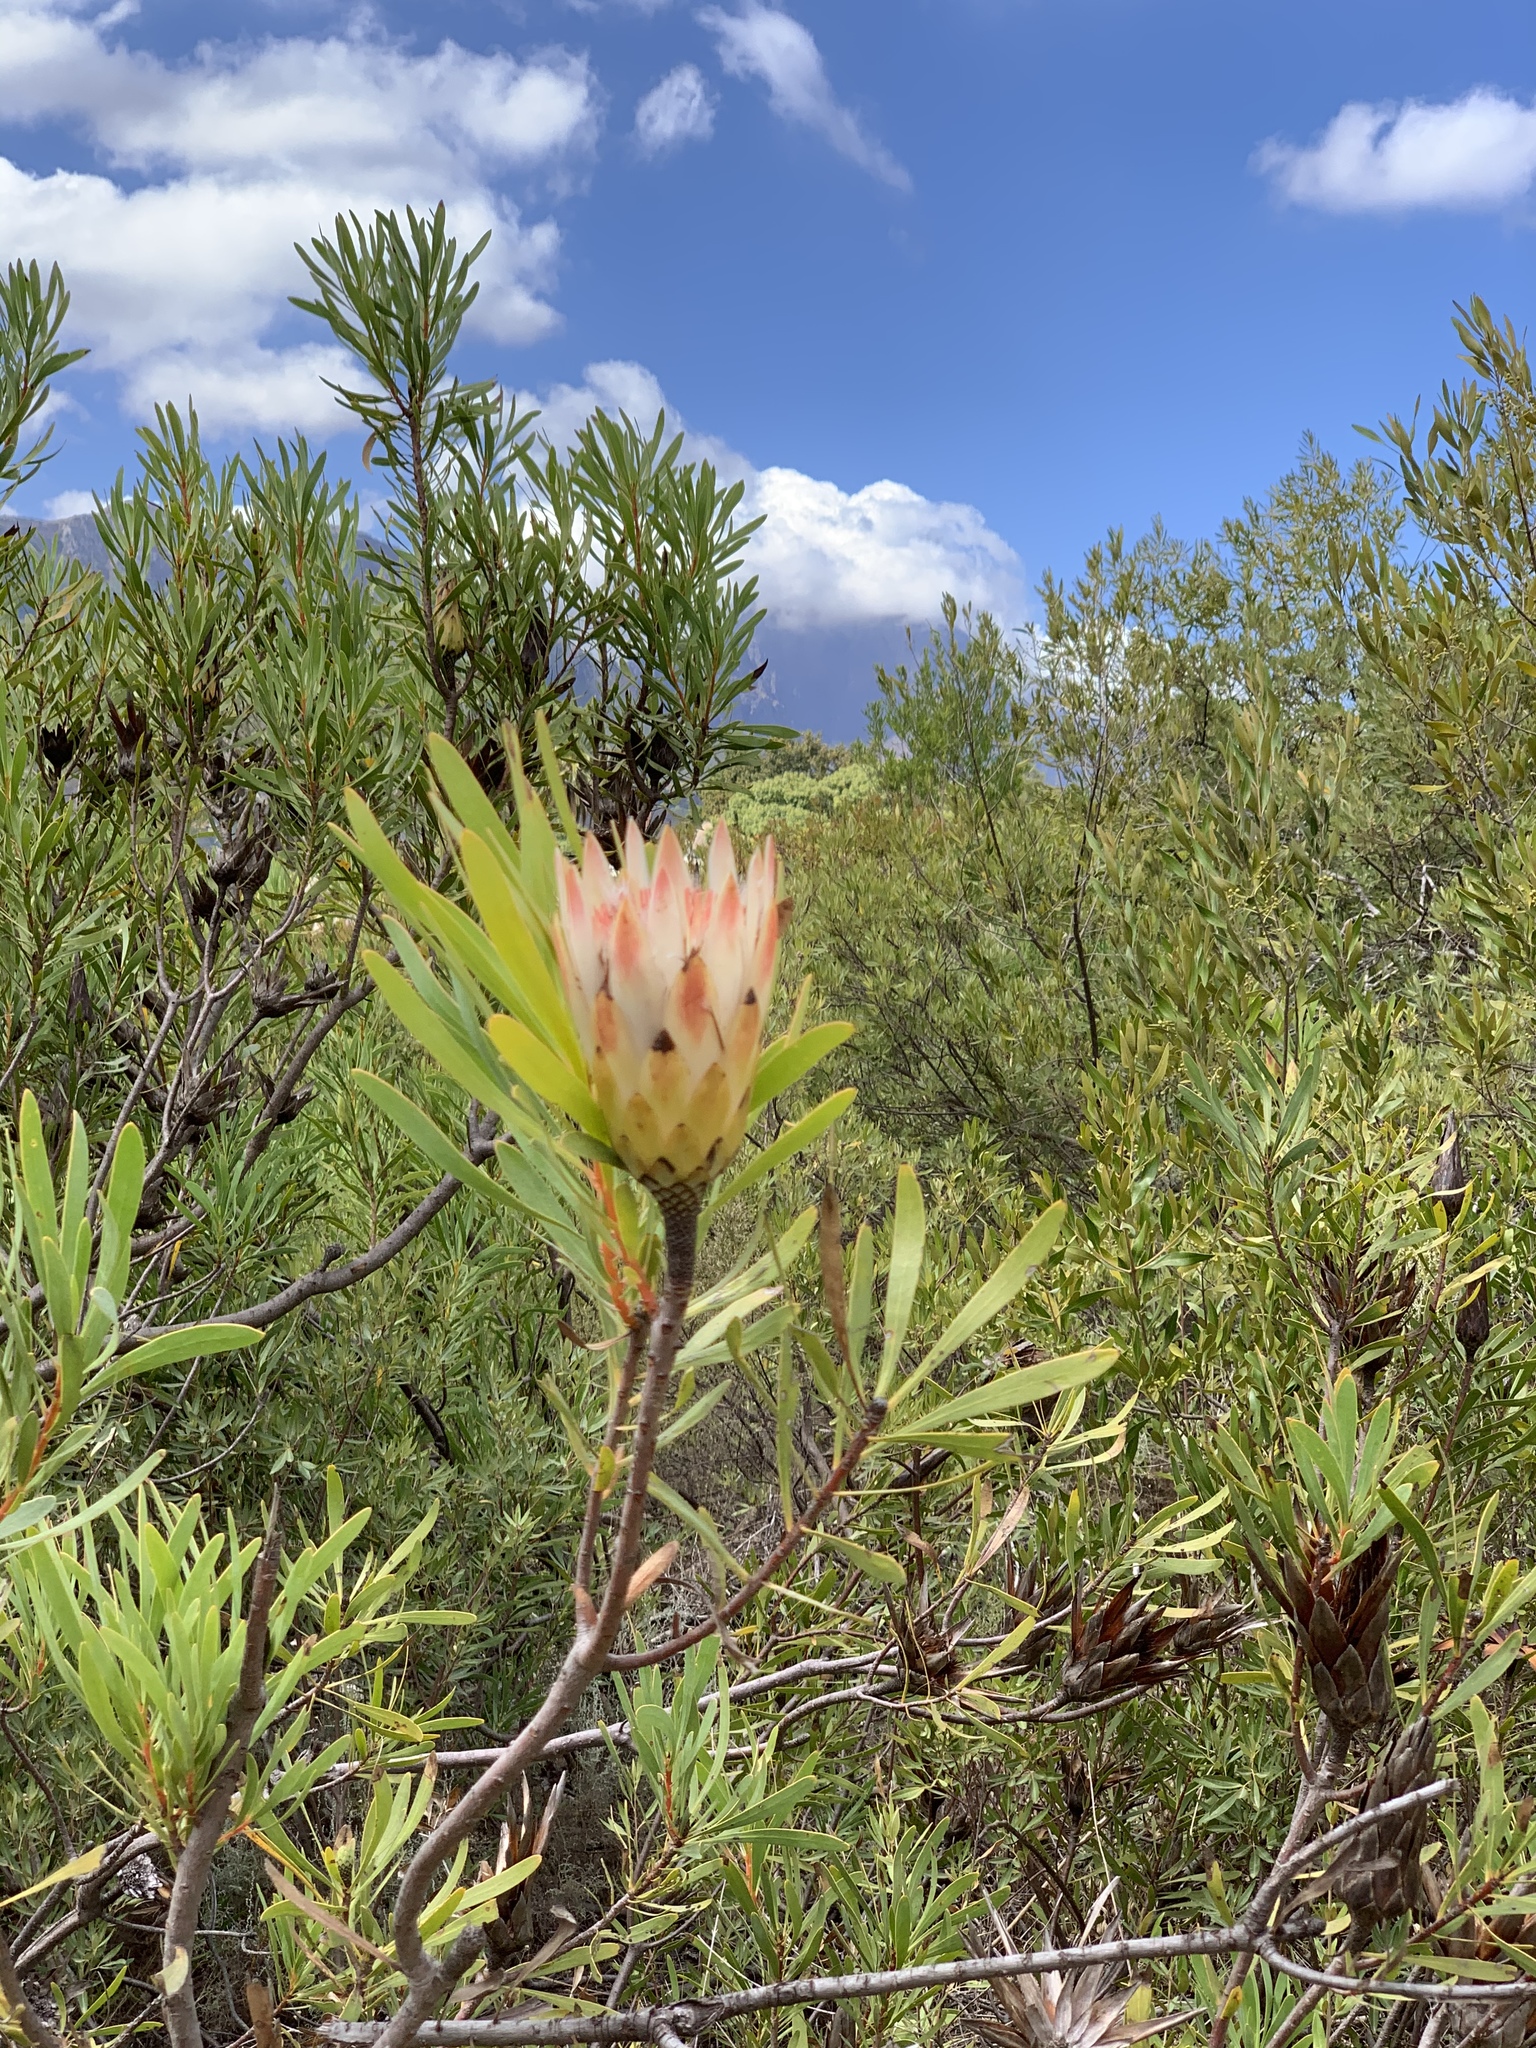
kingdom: Plantae
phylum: Tracheophyta
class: Magnoliopsida
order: Proteales
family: Proteaceae
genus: Protea
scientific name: Protea repens
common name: Sugarbush
